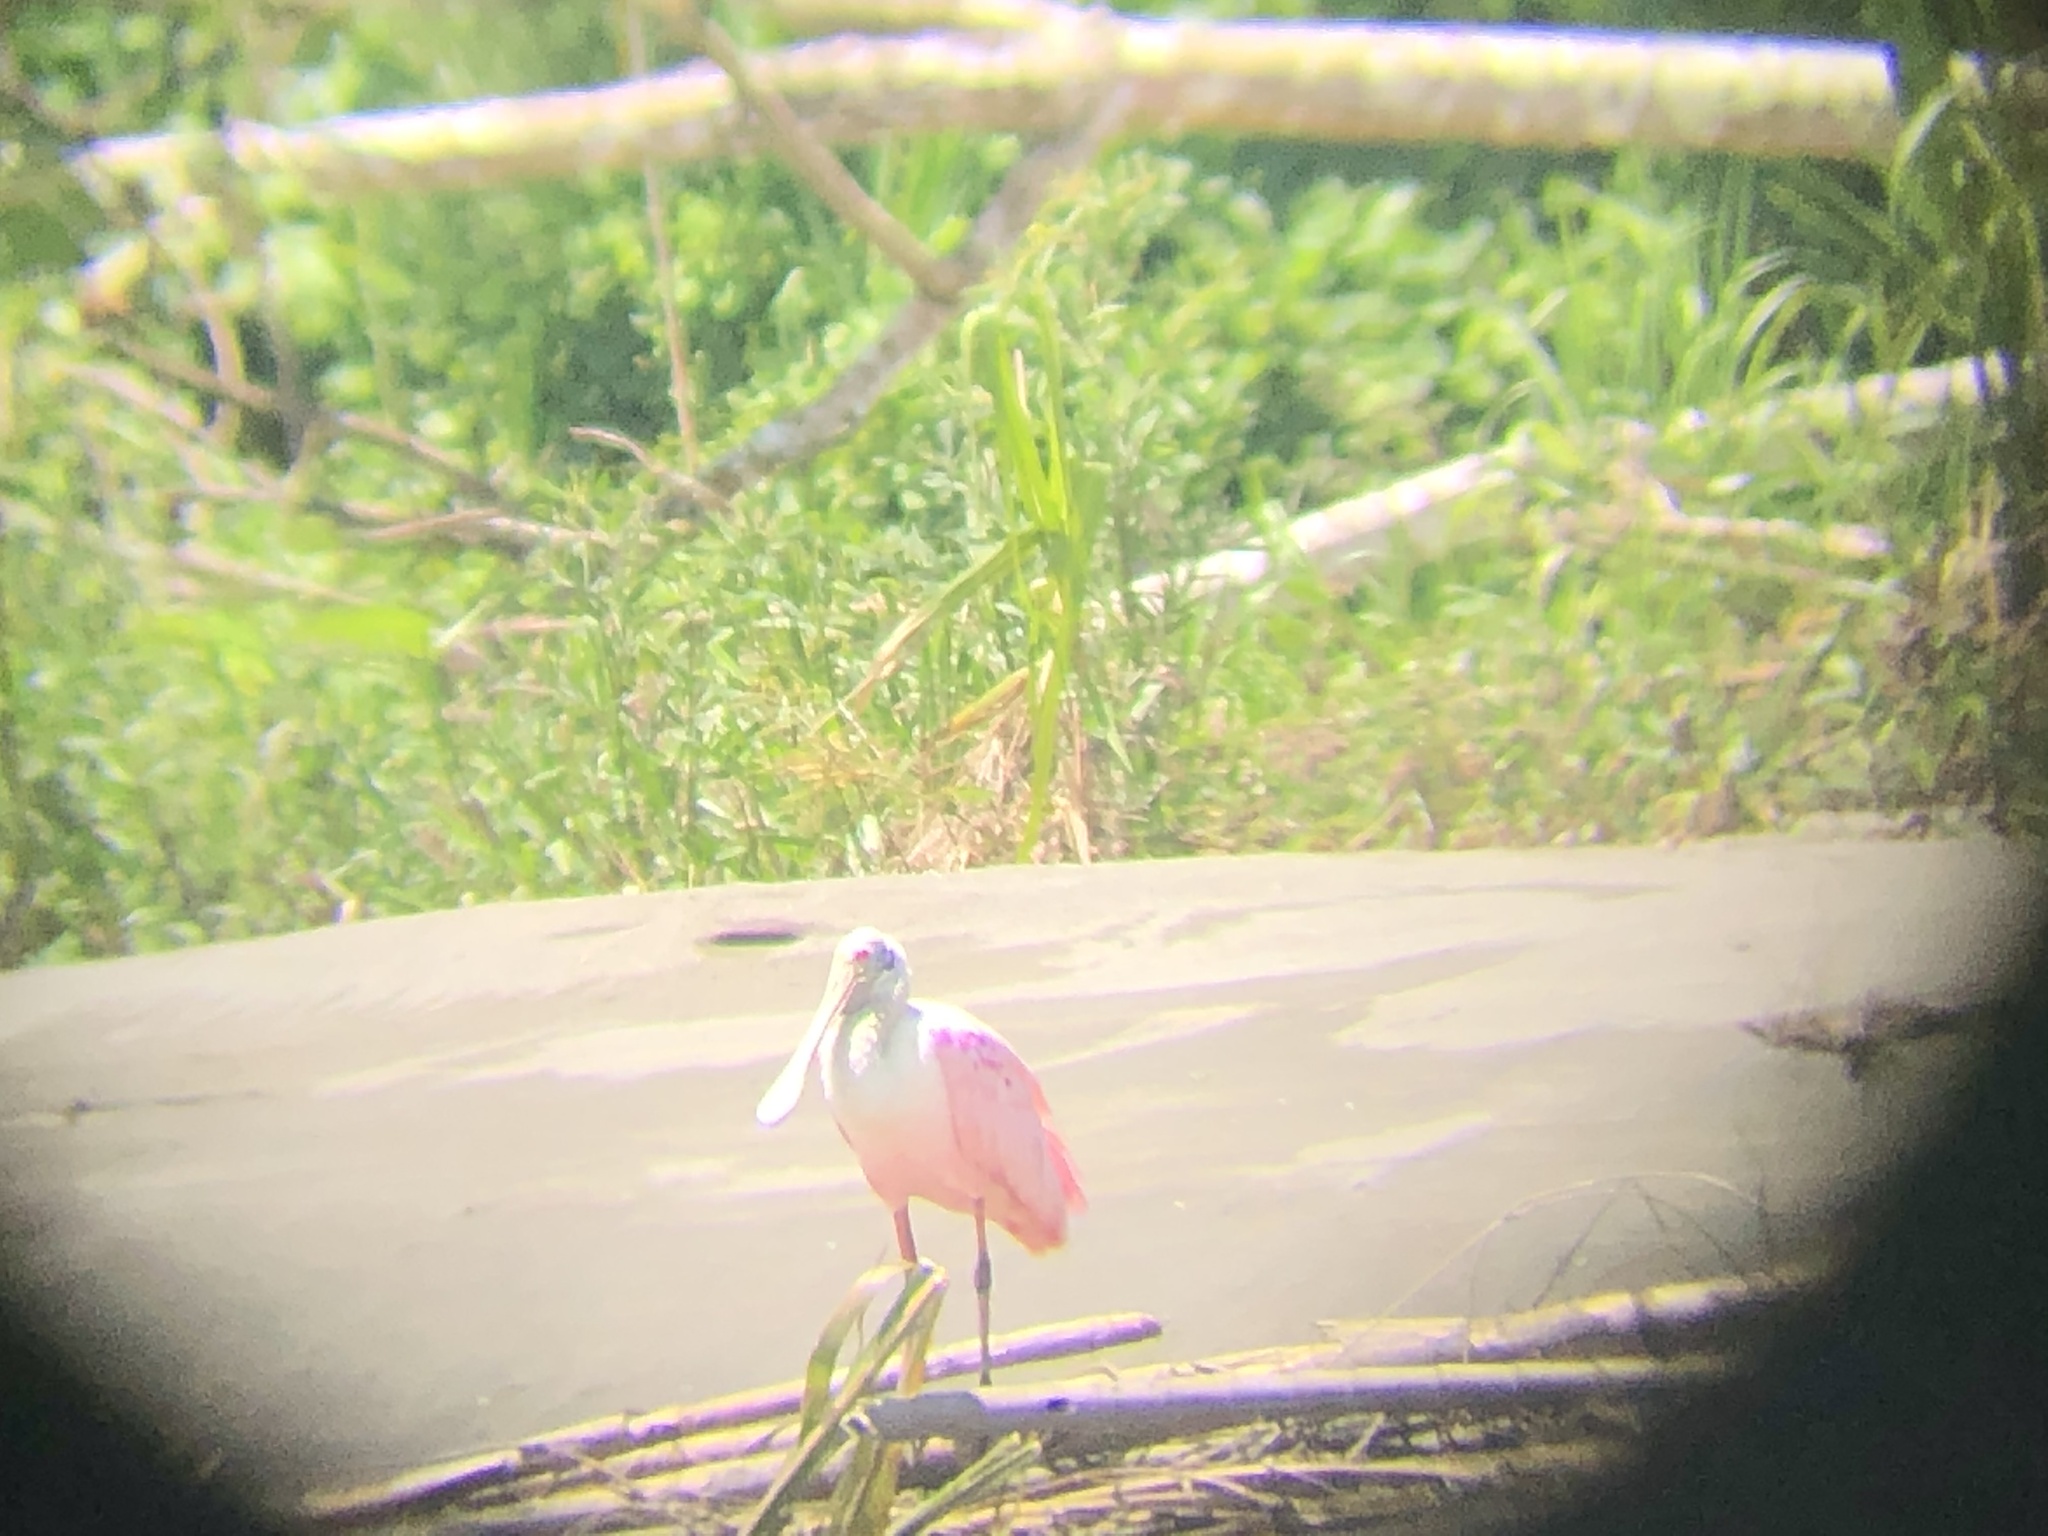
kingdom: Animalia
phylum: Chordata
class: Aves
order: Pelecaniformes
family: Threskiornithidae
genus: Platalea
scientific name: Platalea ajaja
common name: Roseate spoonbill
